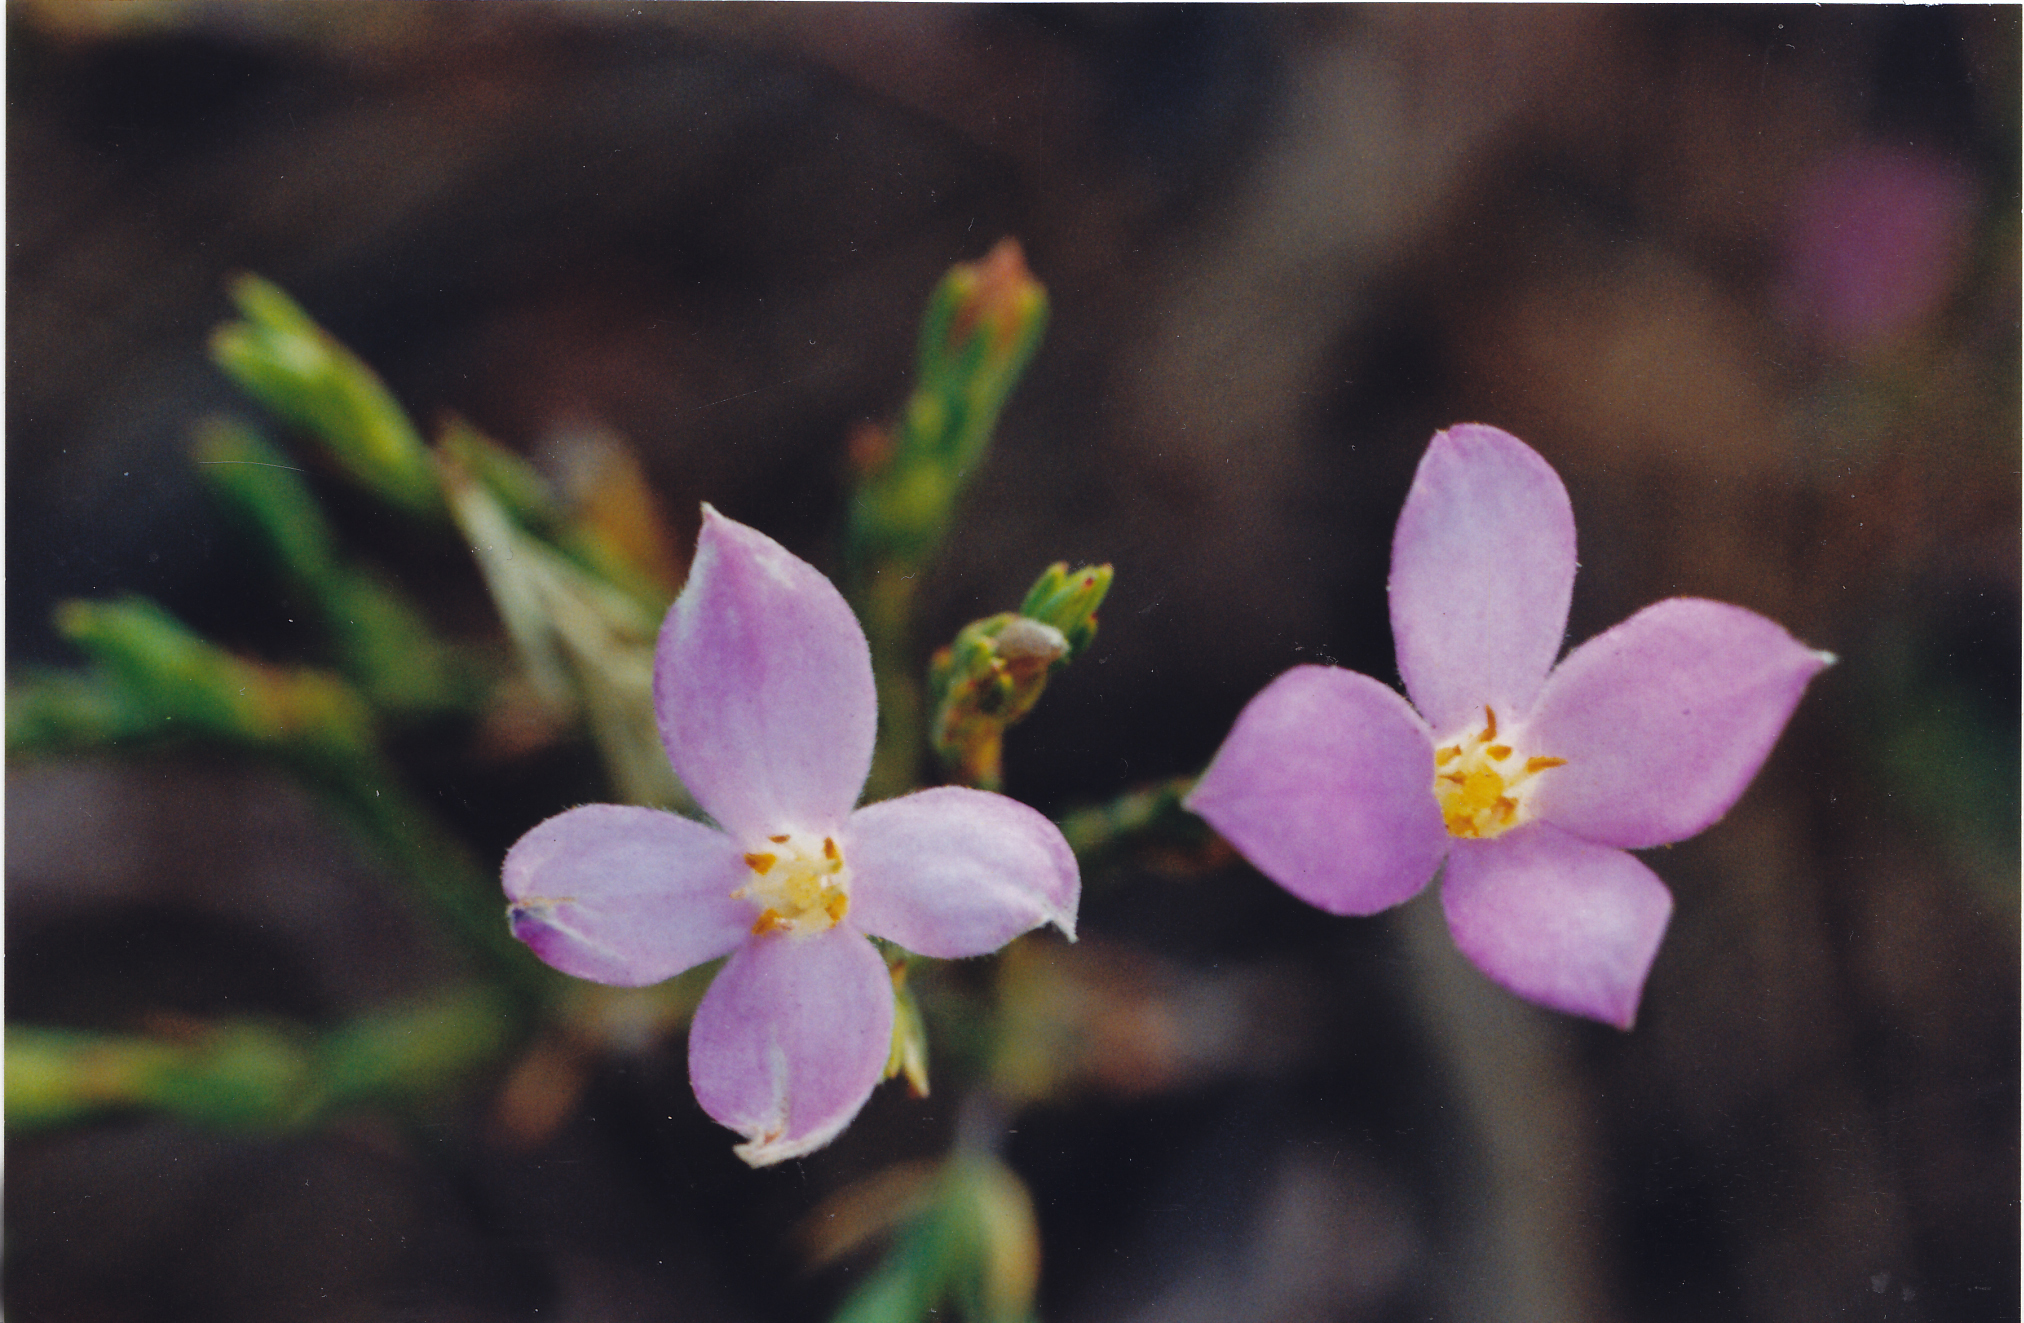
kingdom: Plantae
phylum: Tracheophyta
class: Magnoliopsida
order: Malvales
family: Thymelaeaceae
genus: Lachnaea
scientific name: Lachnaea uniflora
